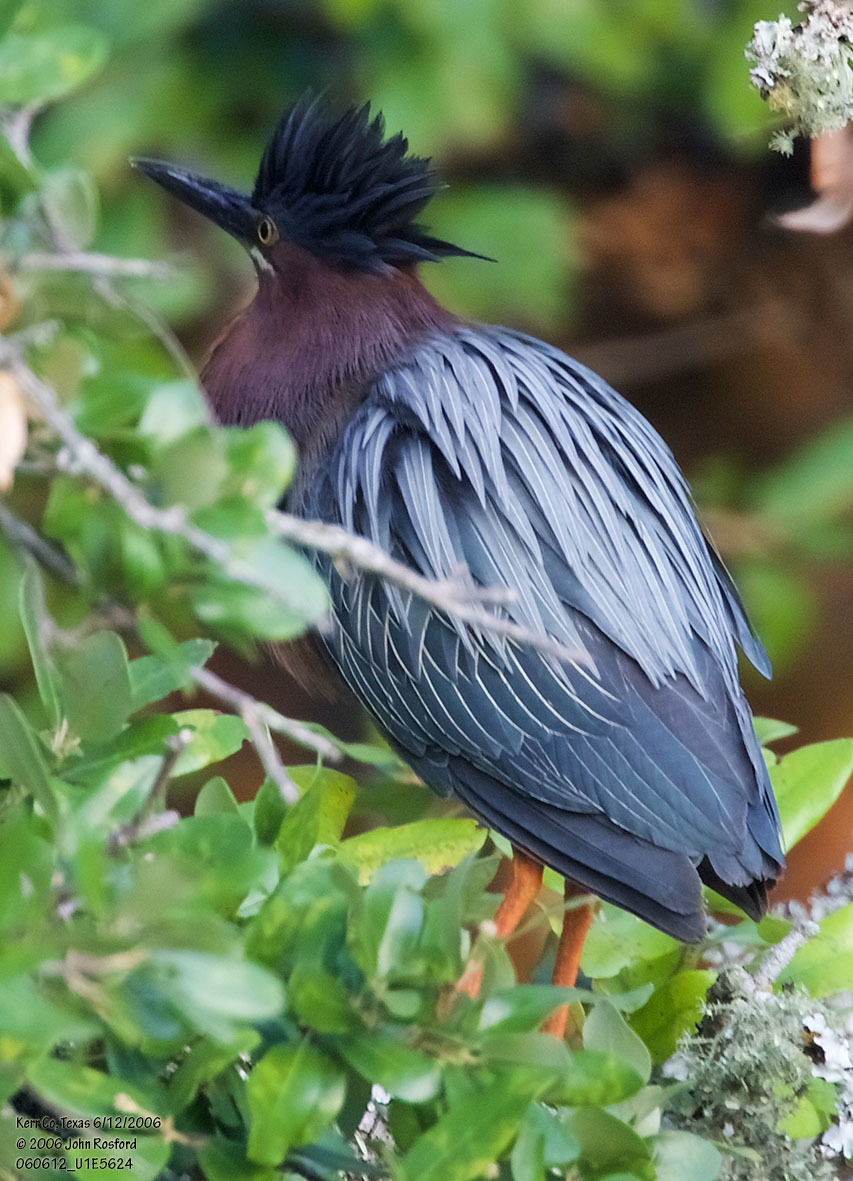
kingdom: Animalia
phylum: Chordata
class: Aves
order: Pelecaniformes
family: Ardeidae
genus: Butorides
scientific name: Butorides virescens
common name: Green heron
